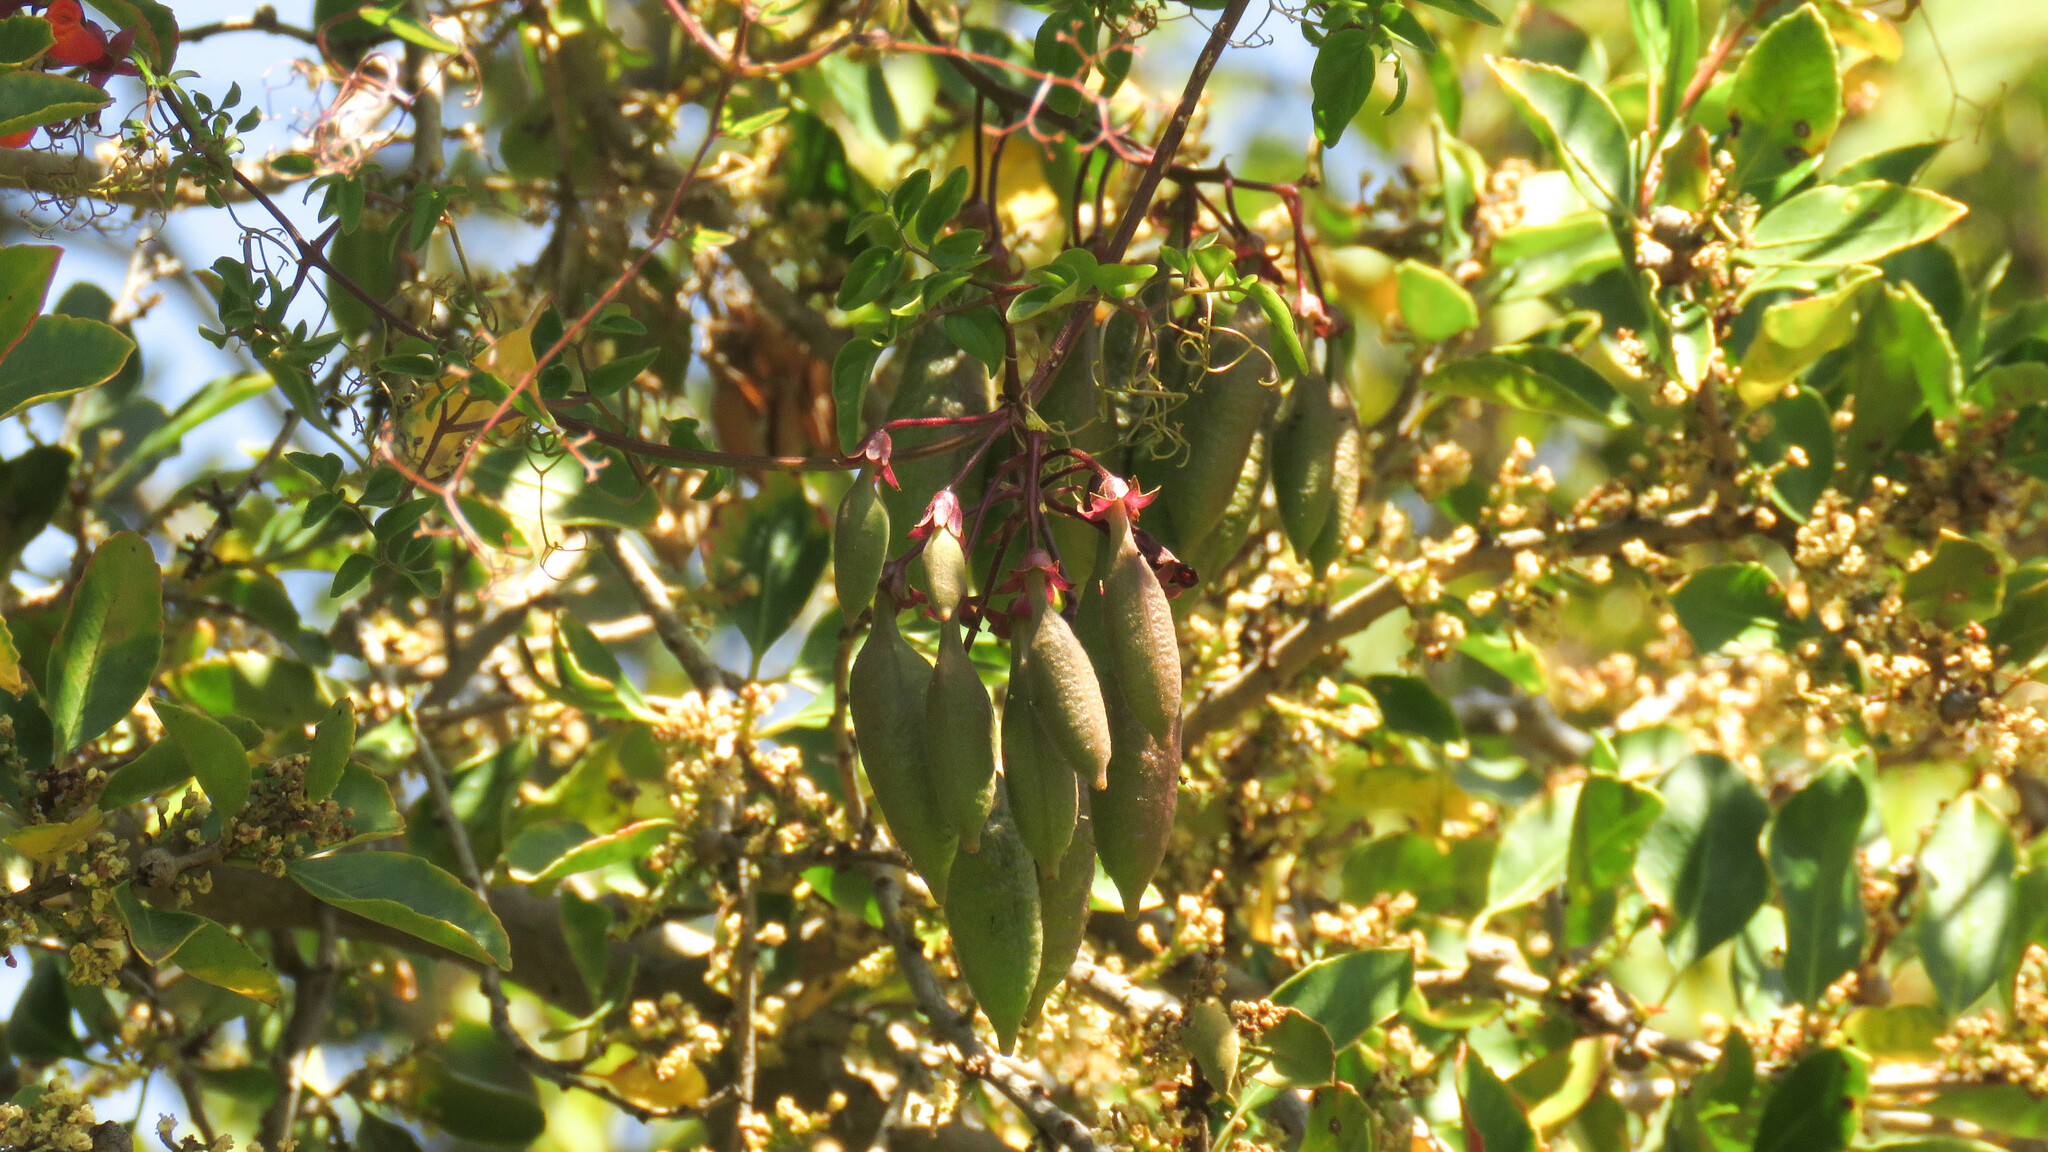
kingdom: Plantae
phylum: Tracheophyta
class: Magnoliopsida
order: Lamiales
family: Bignoniaceae
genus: Eccremocarpus
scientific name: Eccremocarpus scaber
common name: Chilean glory-flower
